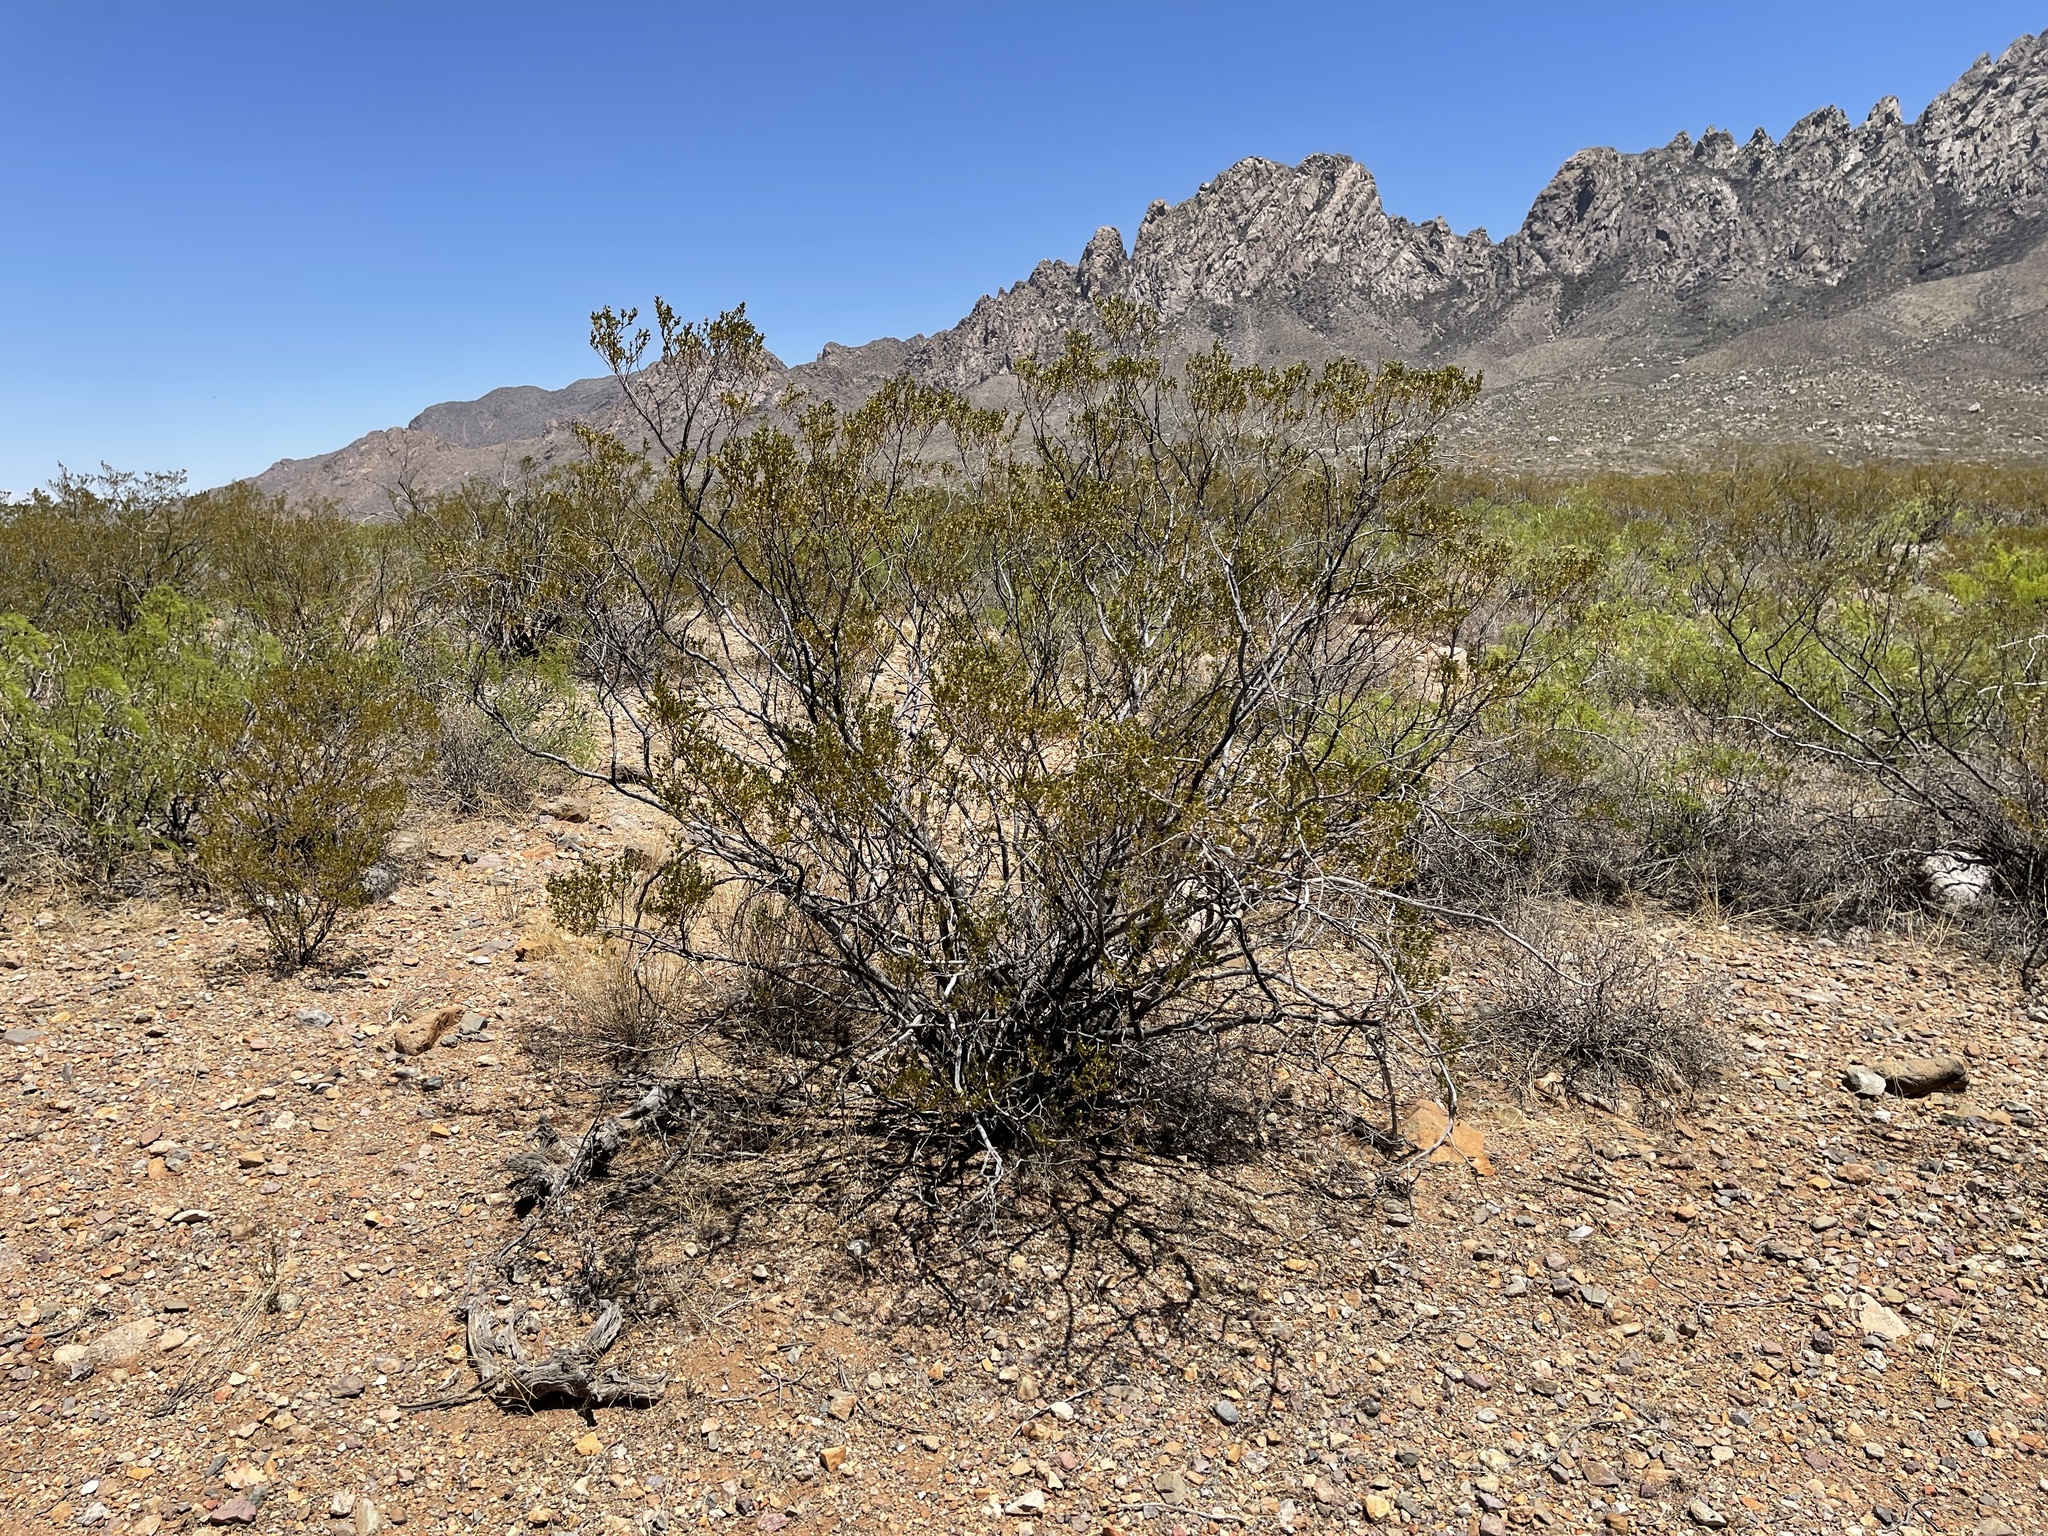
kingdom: Plantae
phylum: Tracheophyta
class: Magnoliopsida
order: Zygophyllales
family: Zygophyllaceae
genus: Larrea
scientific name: Larrea tridentata
